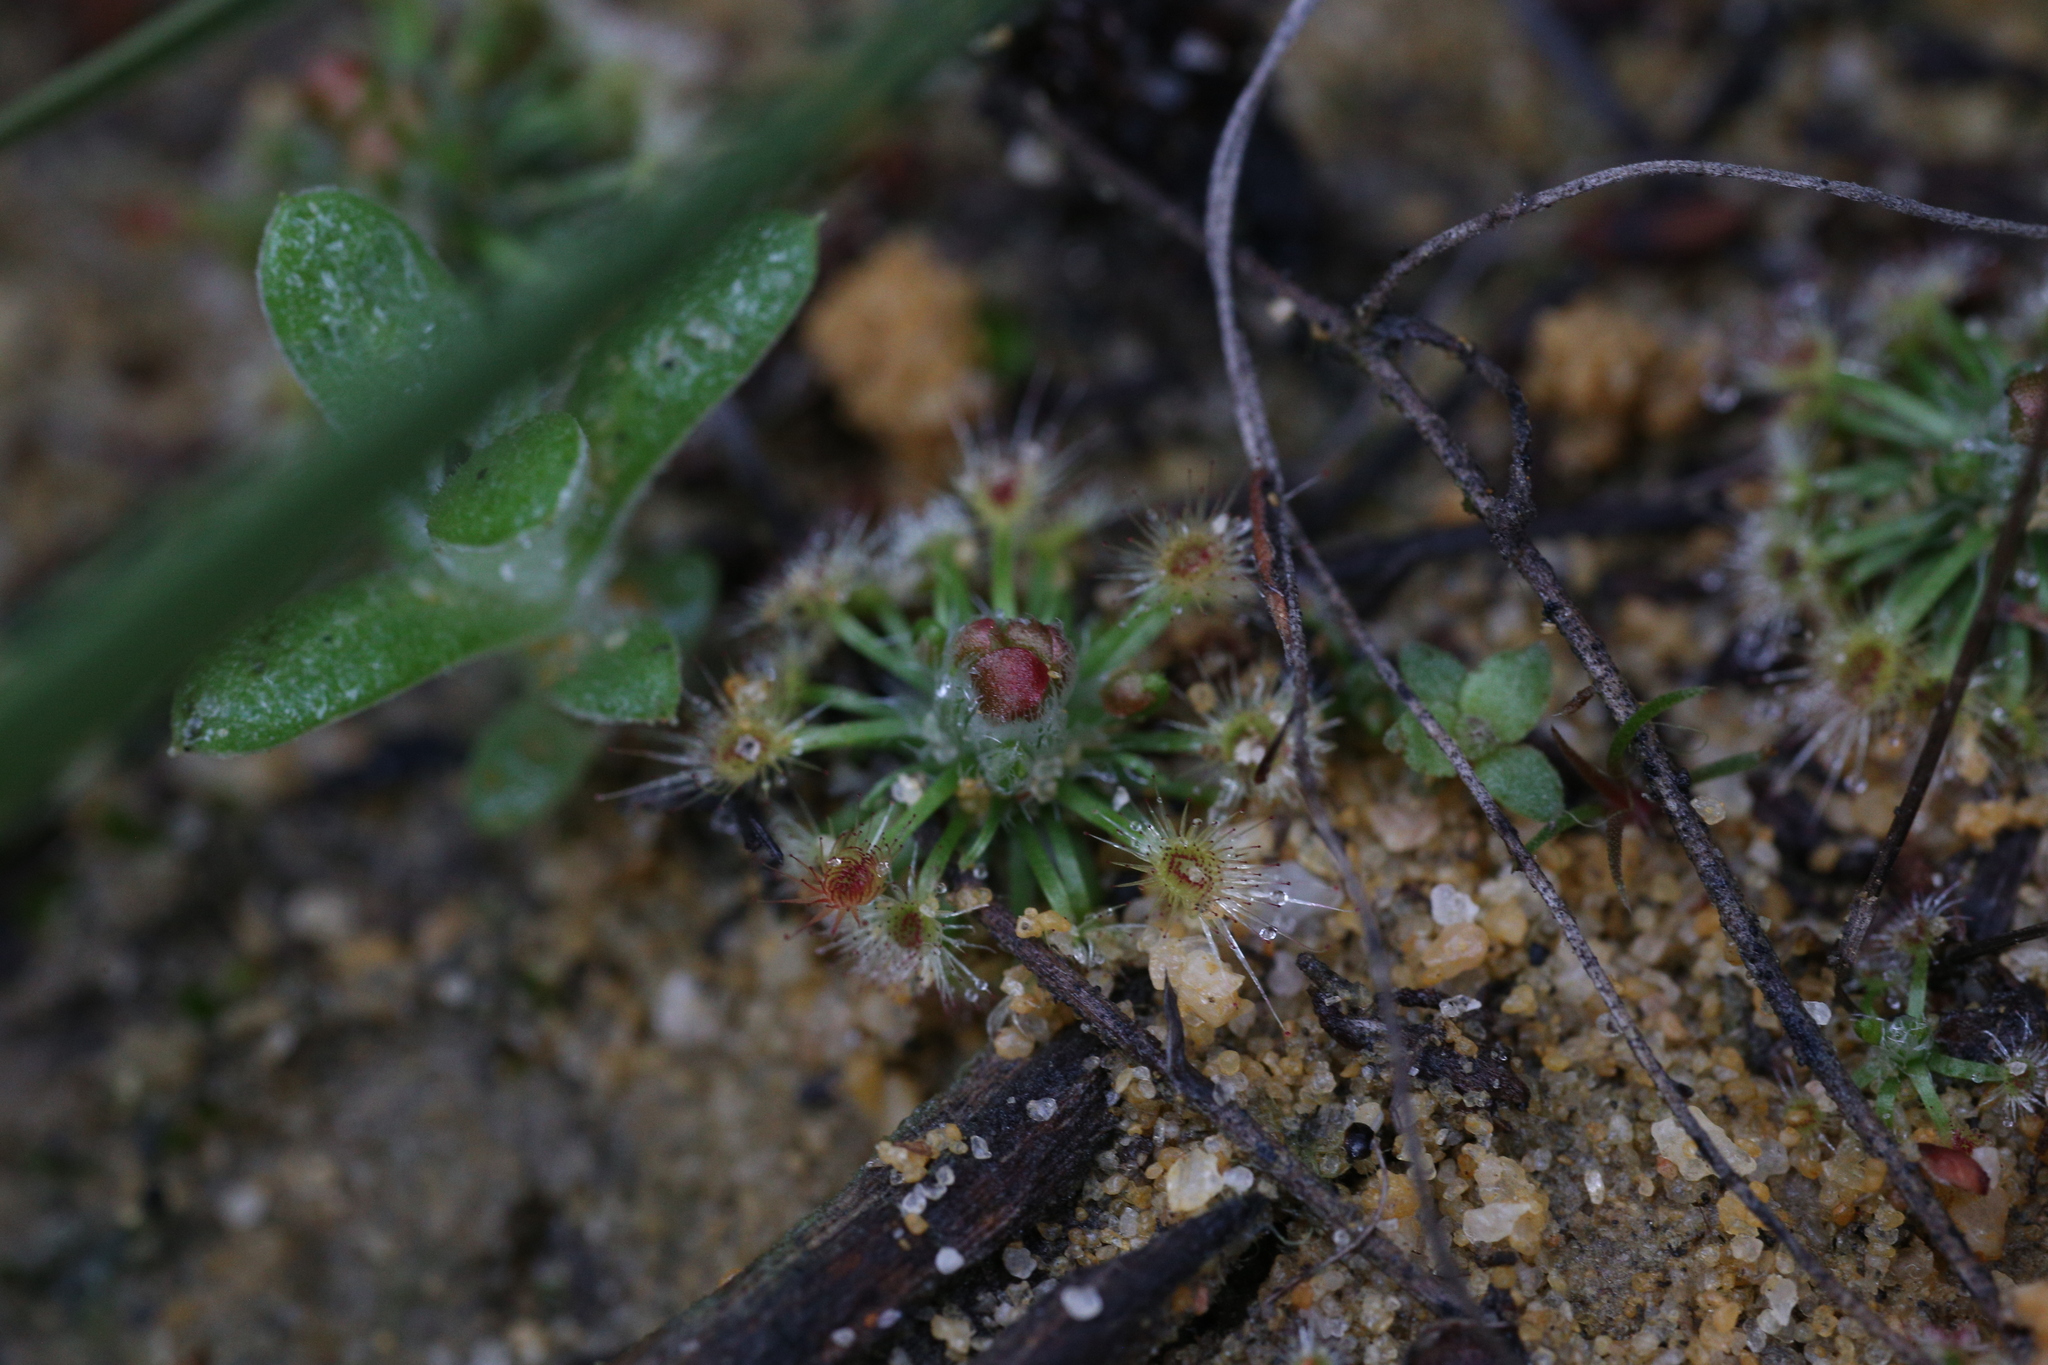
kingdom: Plantae
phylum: Tracheophyta
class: Magnoliopsida
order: Caryophyllales
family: Droseraceae
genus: Drosera
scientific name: Drosera citrina
